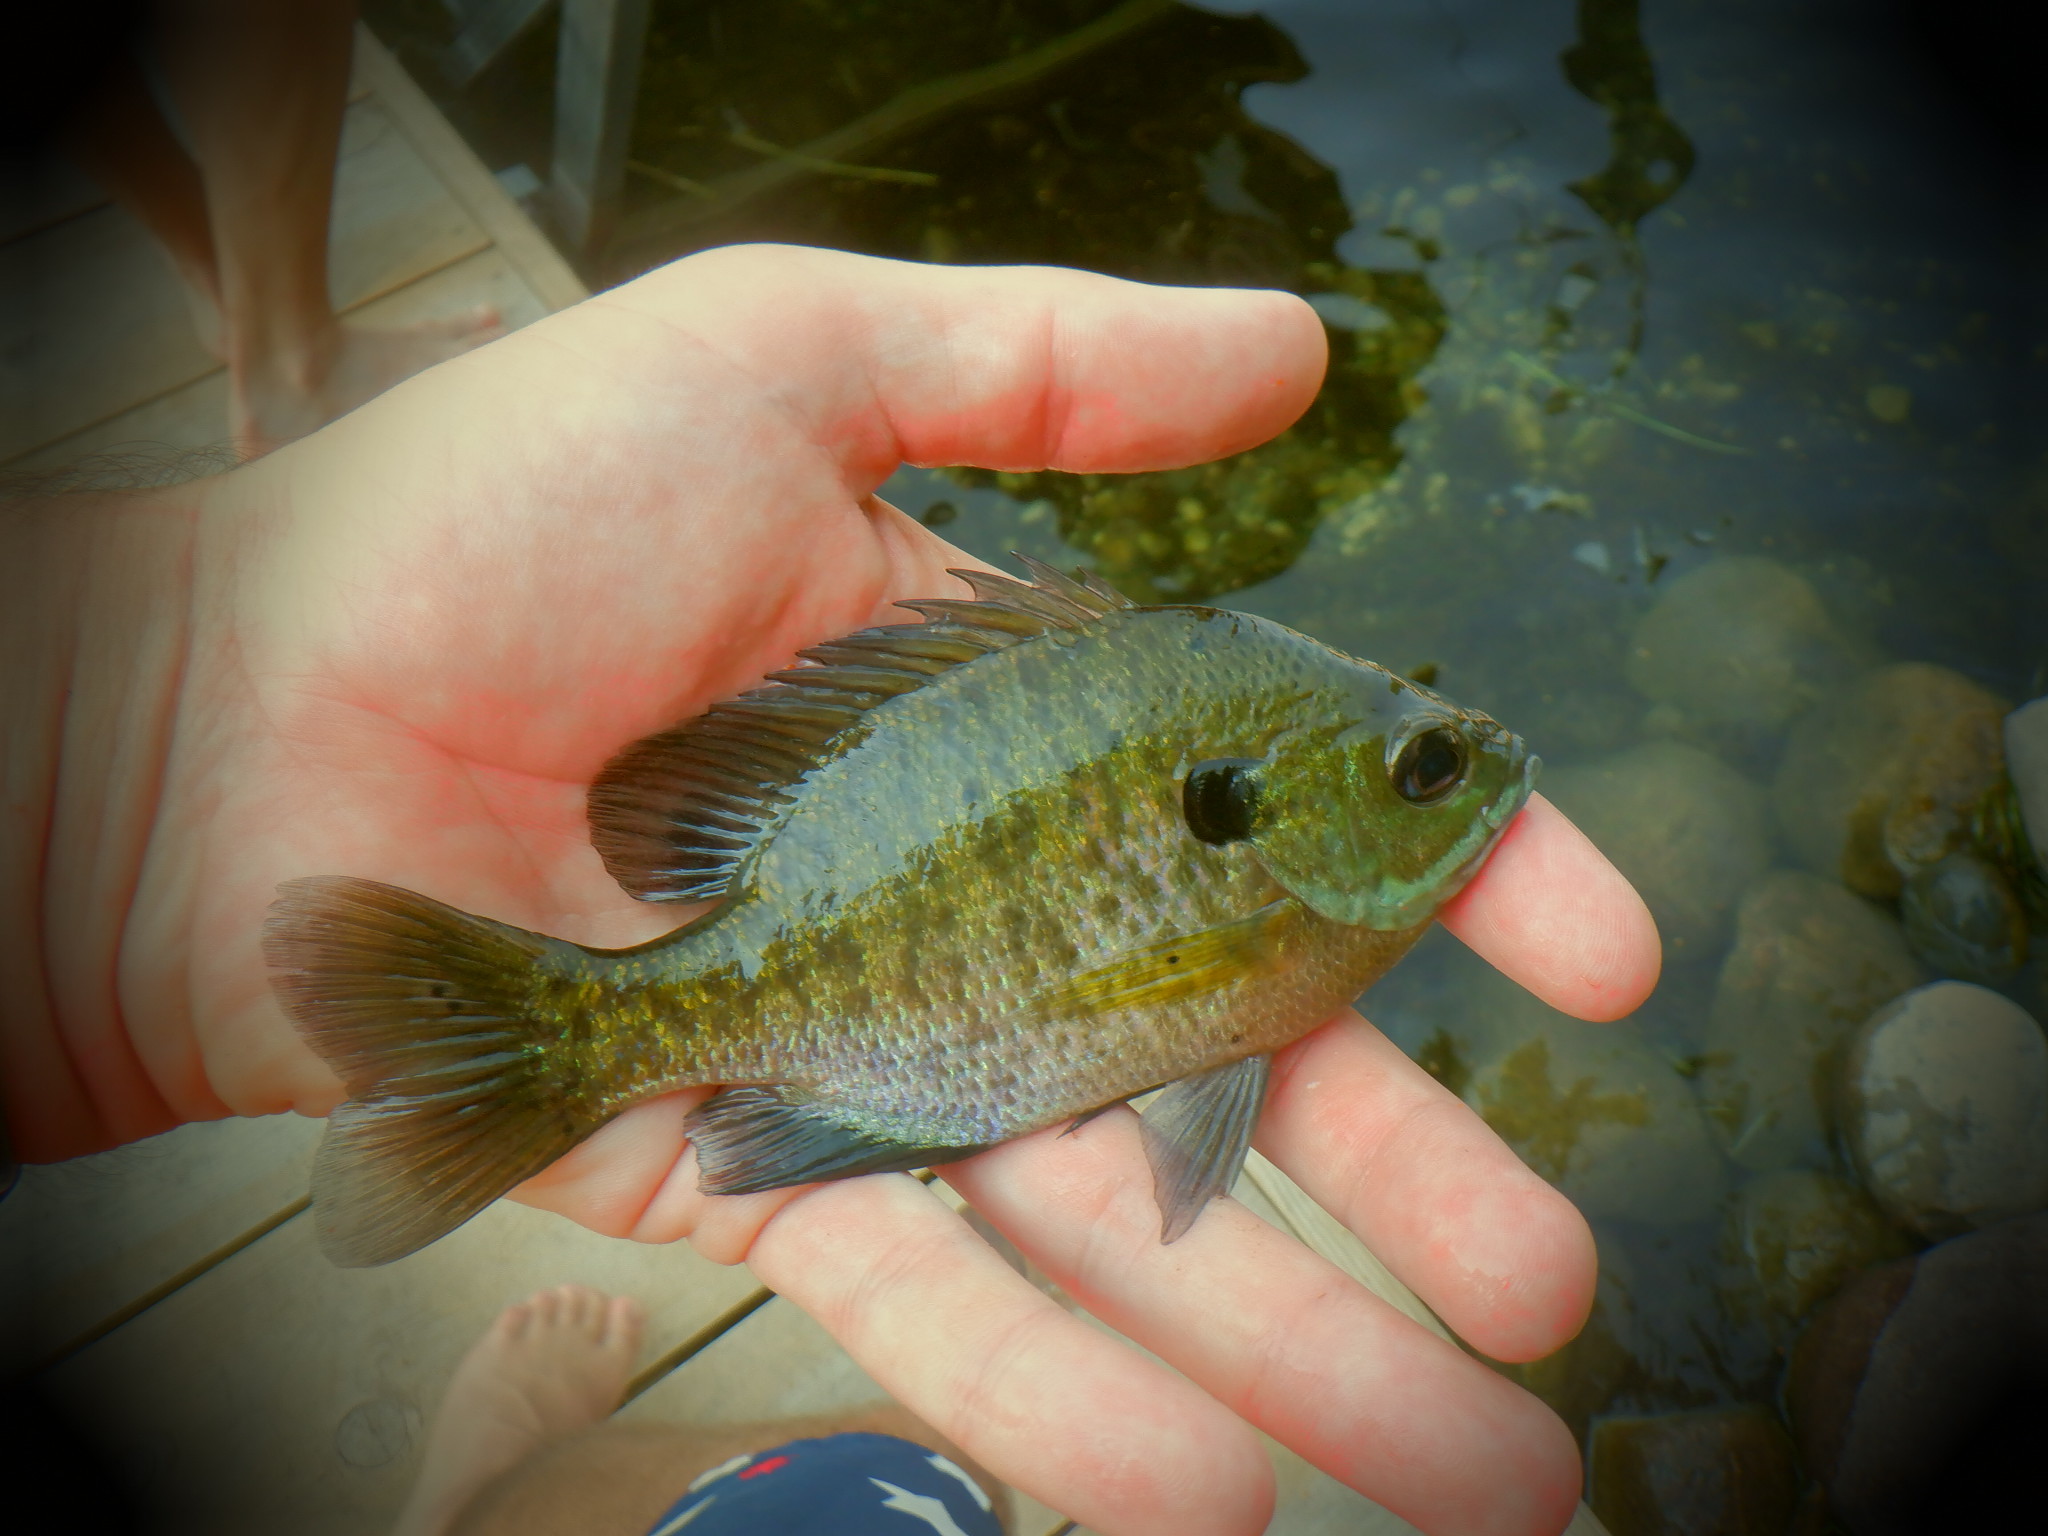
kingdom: Animalia
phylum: Chordata
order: Perciformes
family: Centrarchidae
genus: Lepomis
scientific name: Lepomis macrochirus
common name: Bluegill
